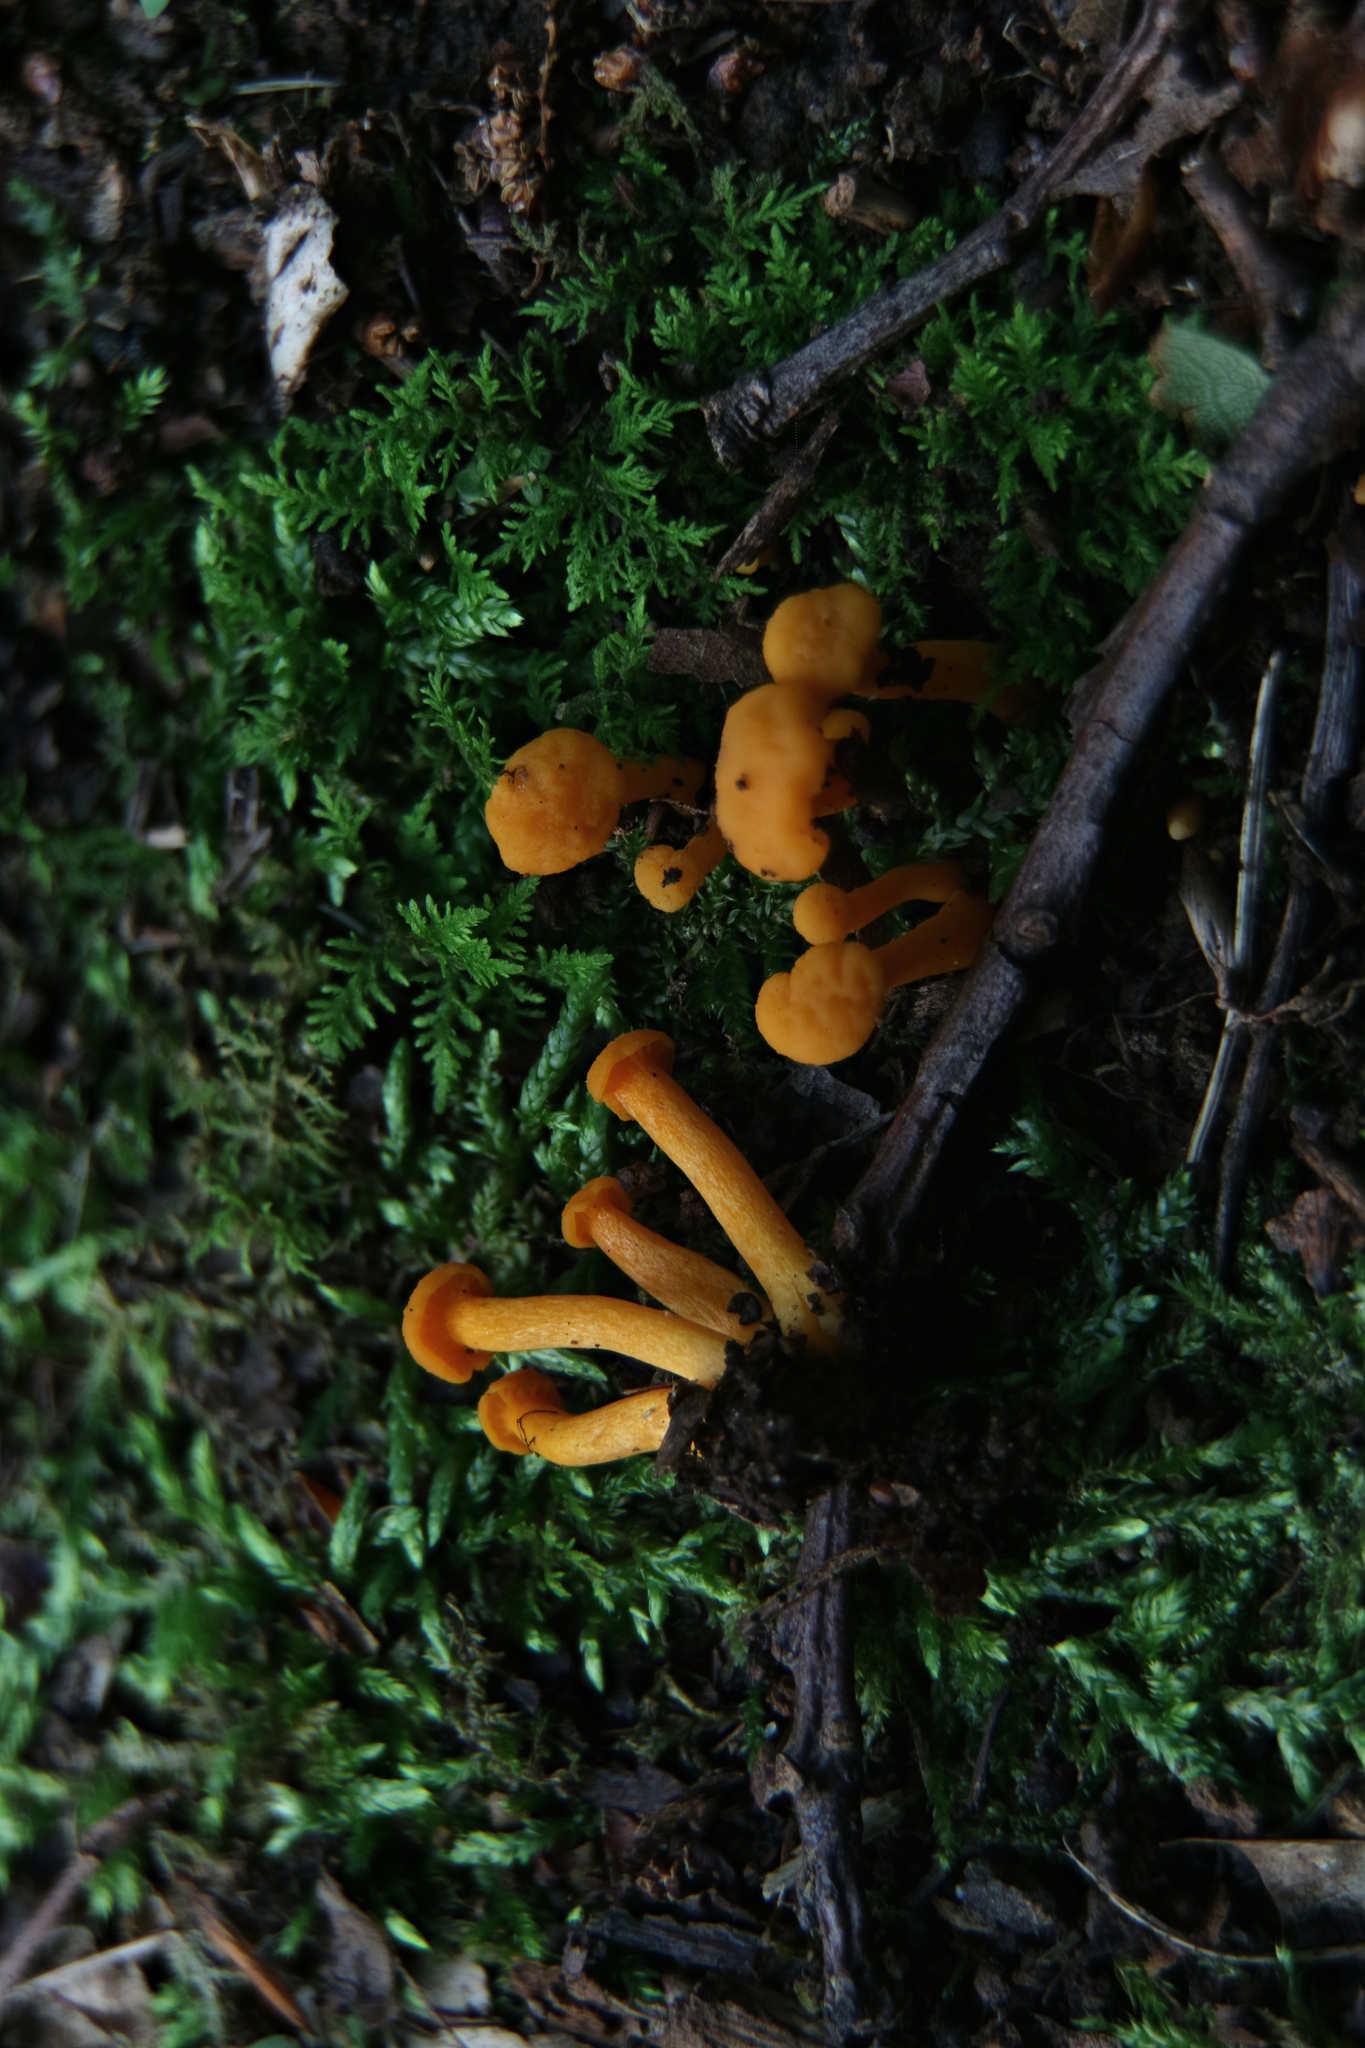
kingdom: Fungi
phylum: Basidiomycota
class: Agaricomycetes
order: Cantharellales
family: Hydnaceae
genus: Cantharellus
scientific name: Cantharellus minor
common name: Small chanterelle
